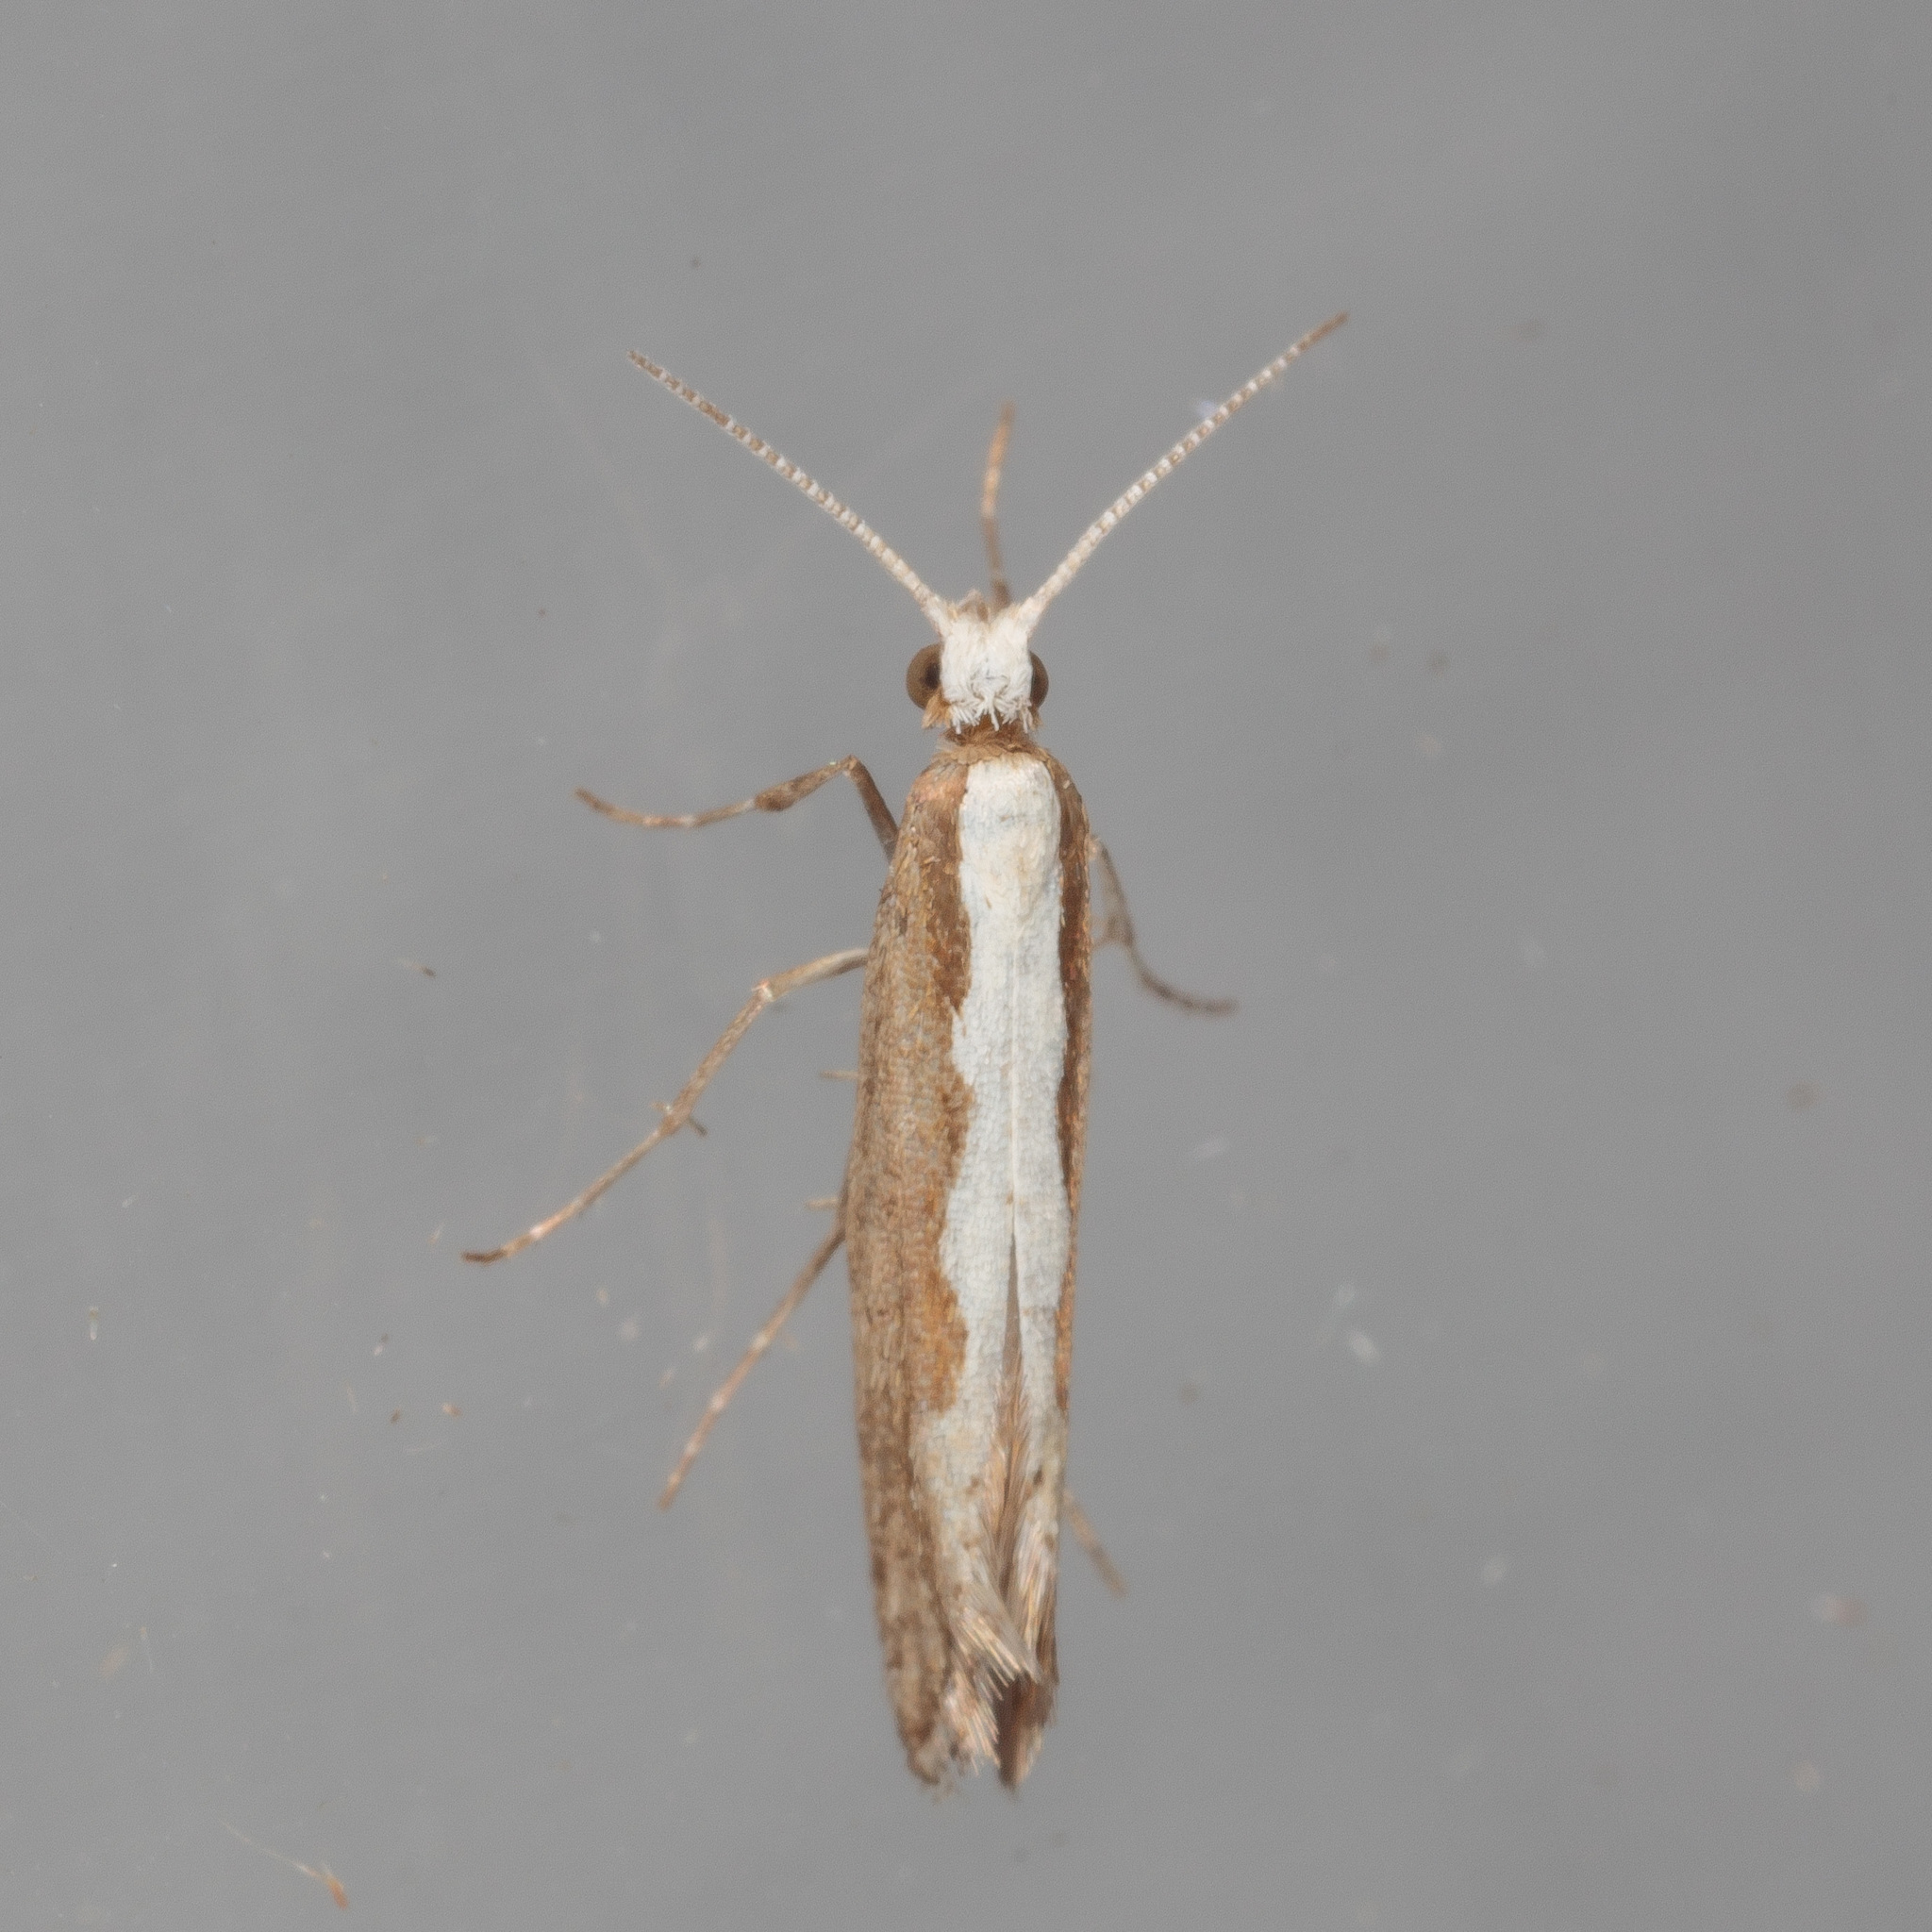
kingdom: Animalia
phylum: Arthropoda
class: Insecta
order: Lepidoptera
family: Plutellidae
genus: Plutella
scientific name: Plutella xylostella
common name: Diamond-back moth
